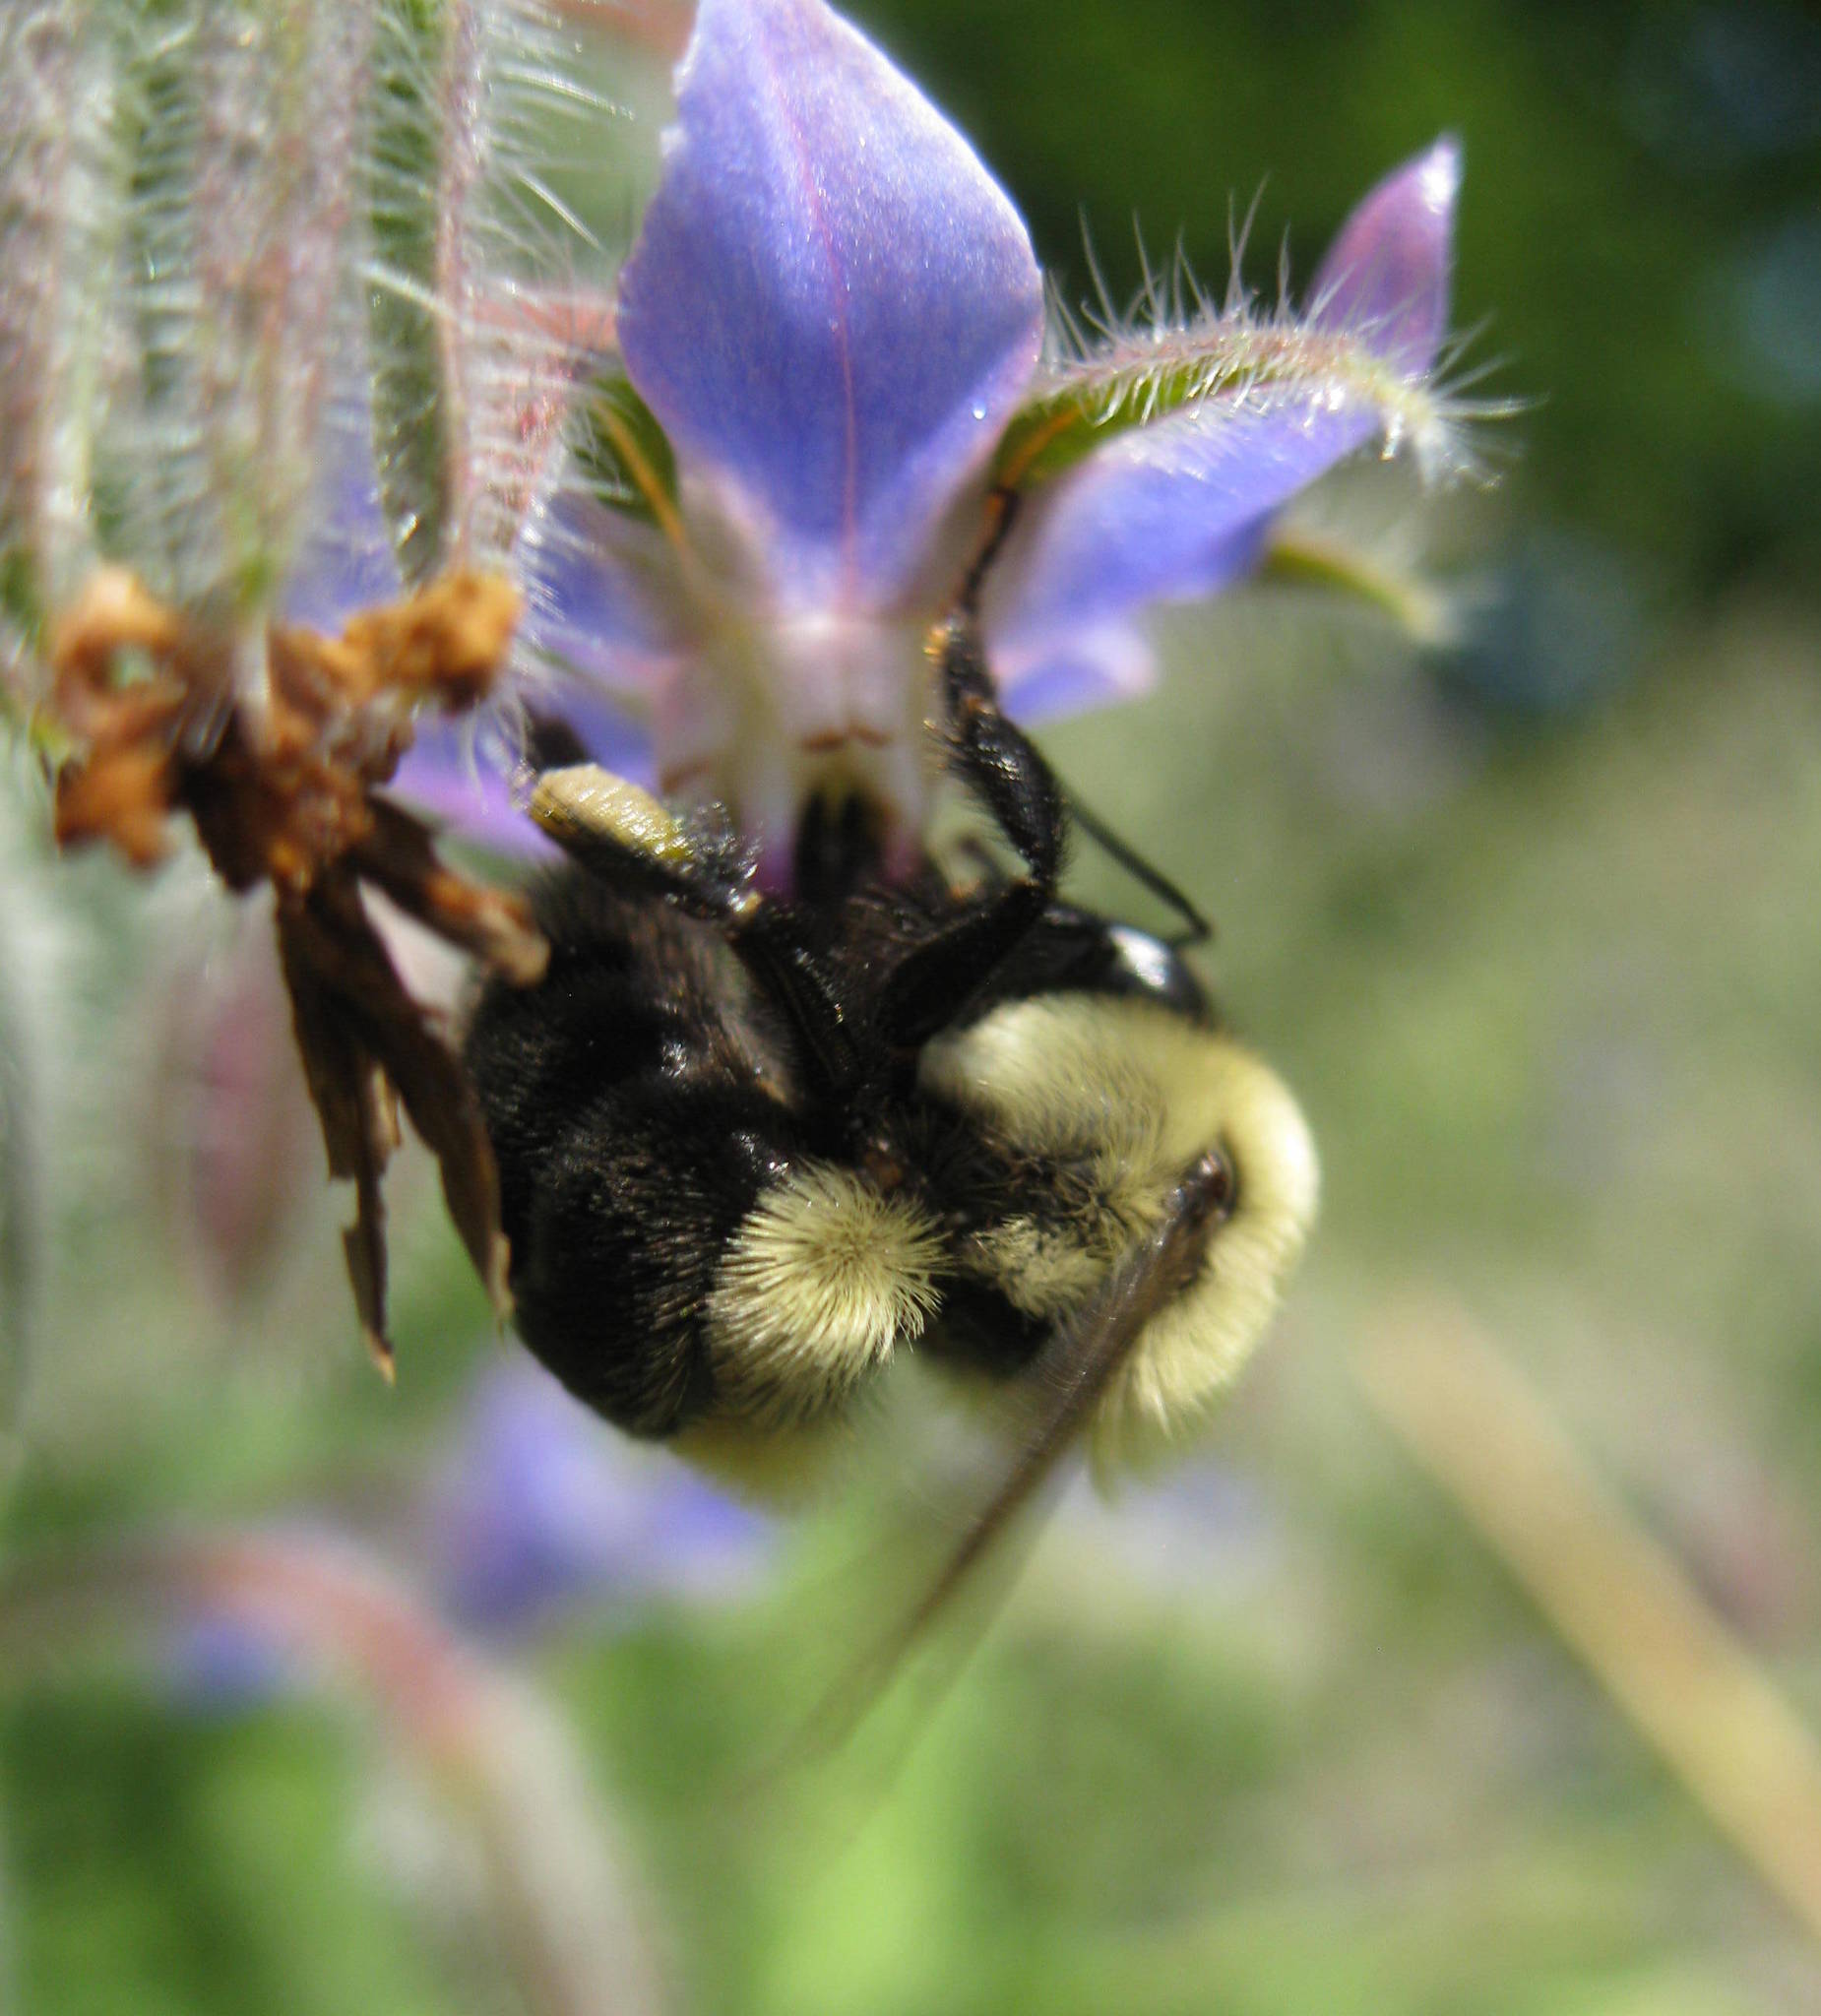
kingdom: Animalia
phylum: Arthropoda
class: Insecta
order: Hymenoptera
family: Apidae
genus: Bombus
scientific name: Bombus impatiens
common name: Common eastern bumble bee
